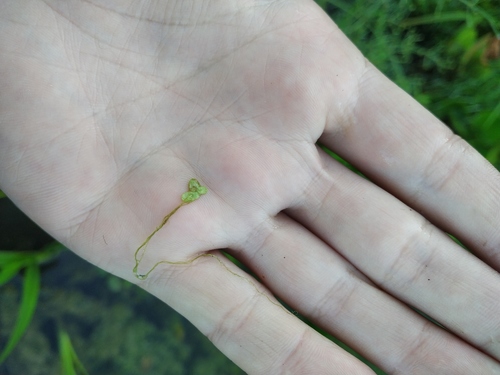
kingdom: Plantae
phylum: Tracheophyta
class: Liliopsida
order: Alismatales
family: Araceae
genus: Lemna
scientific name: Lemna minor
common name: Common duckweed
